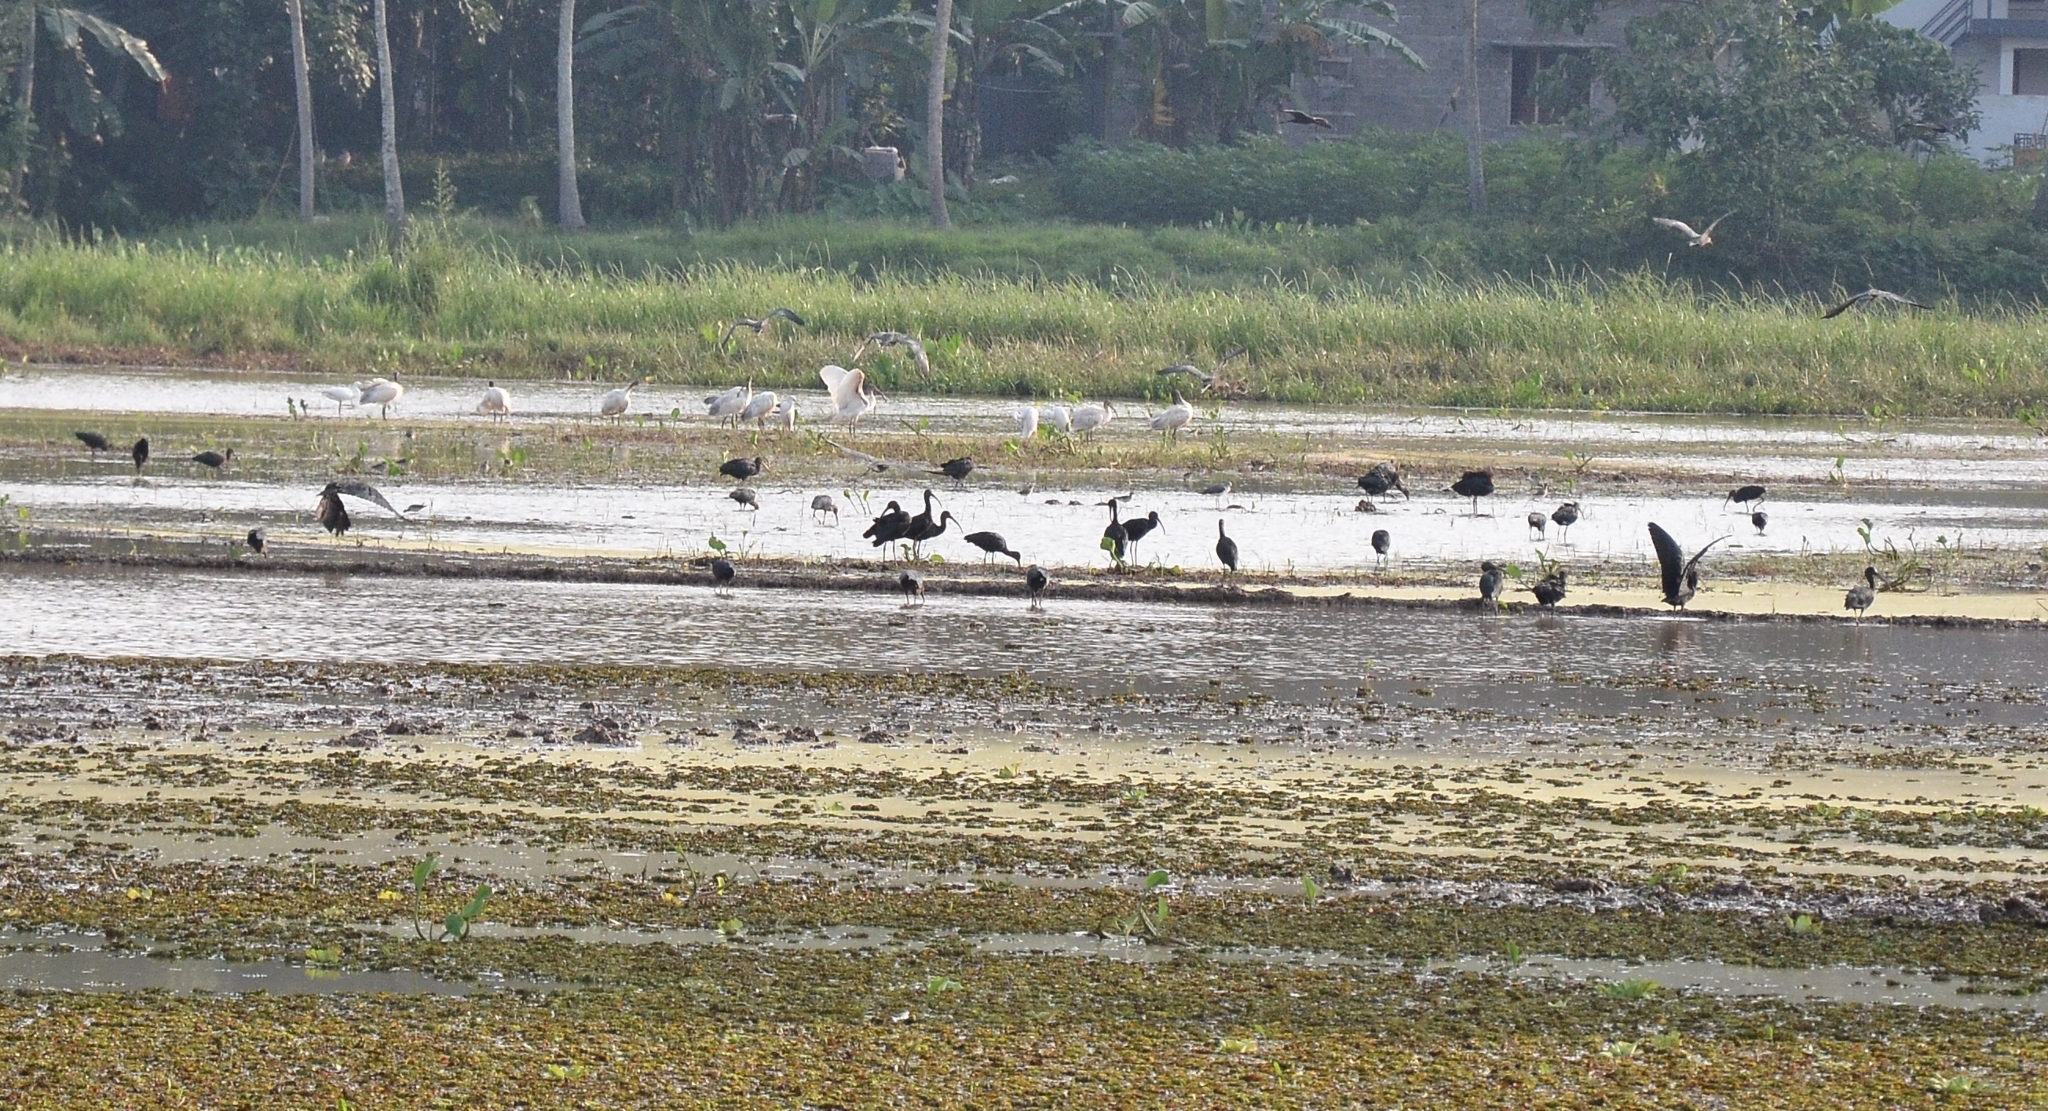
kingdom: Animalia
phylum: Chordata
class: Aves
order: Pelecaniformes
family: Threskiornithidae
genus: Plegadis
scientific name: Plegadis falcinellus
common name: Glossy ibis
